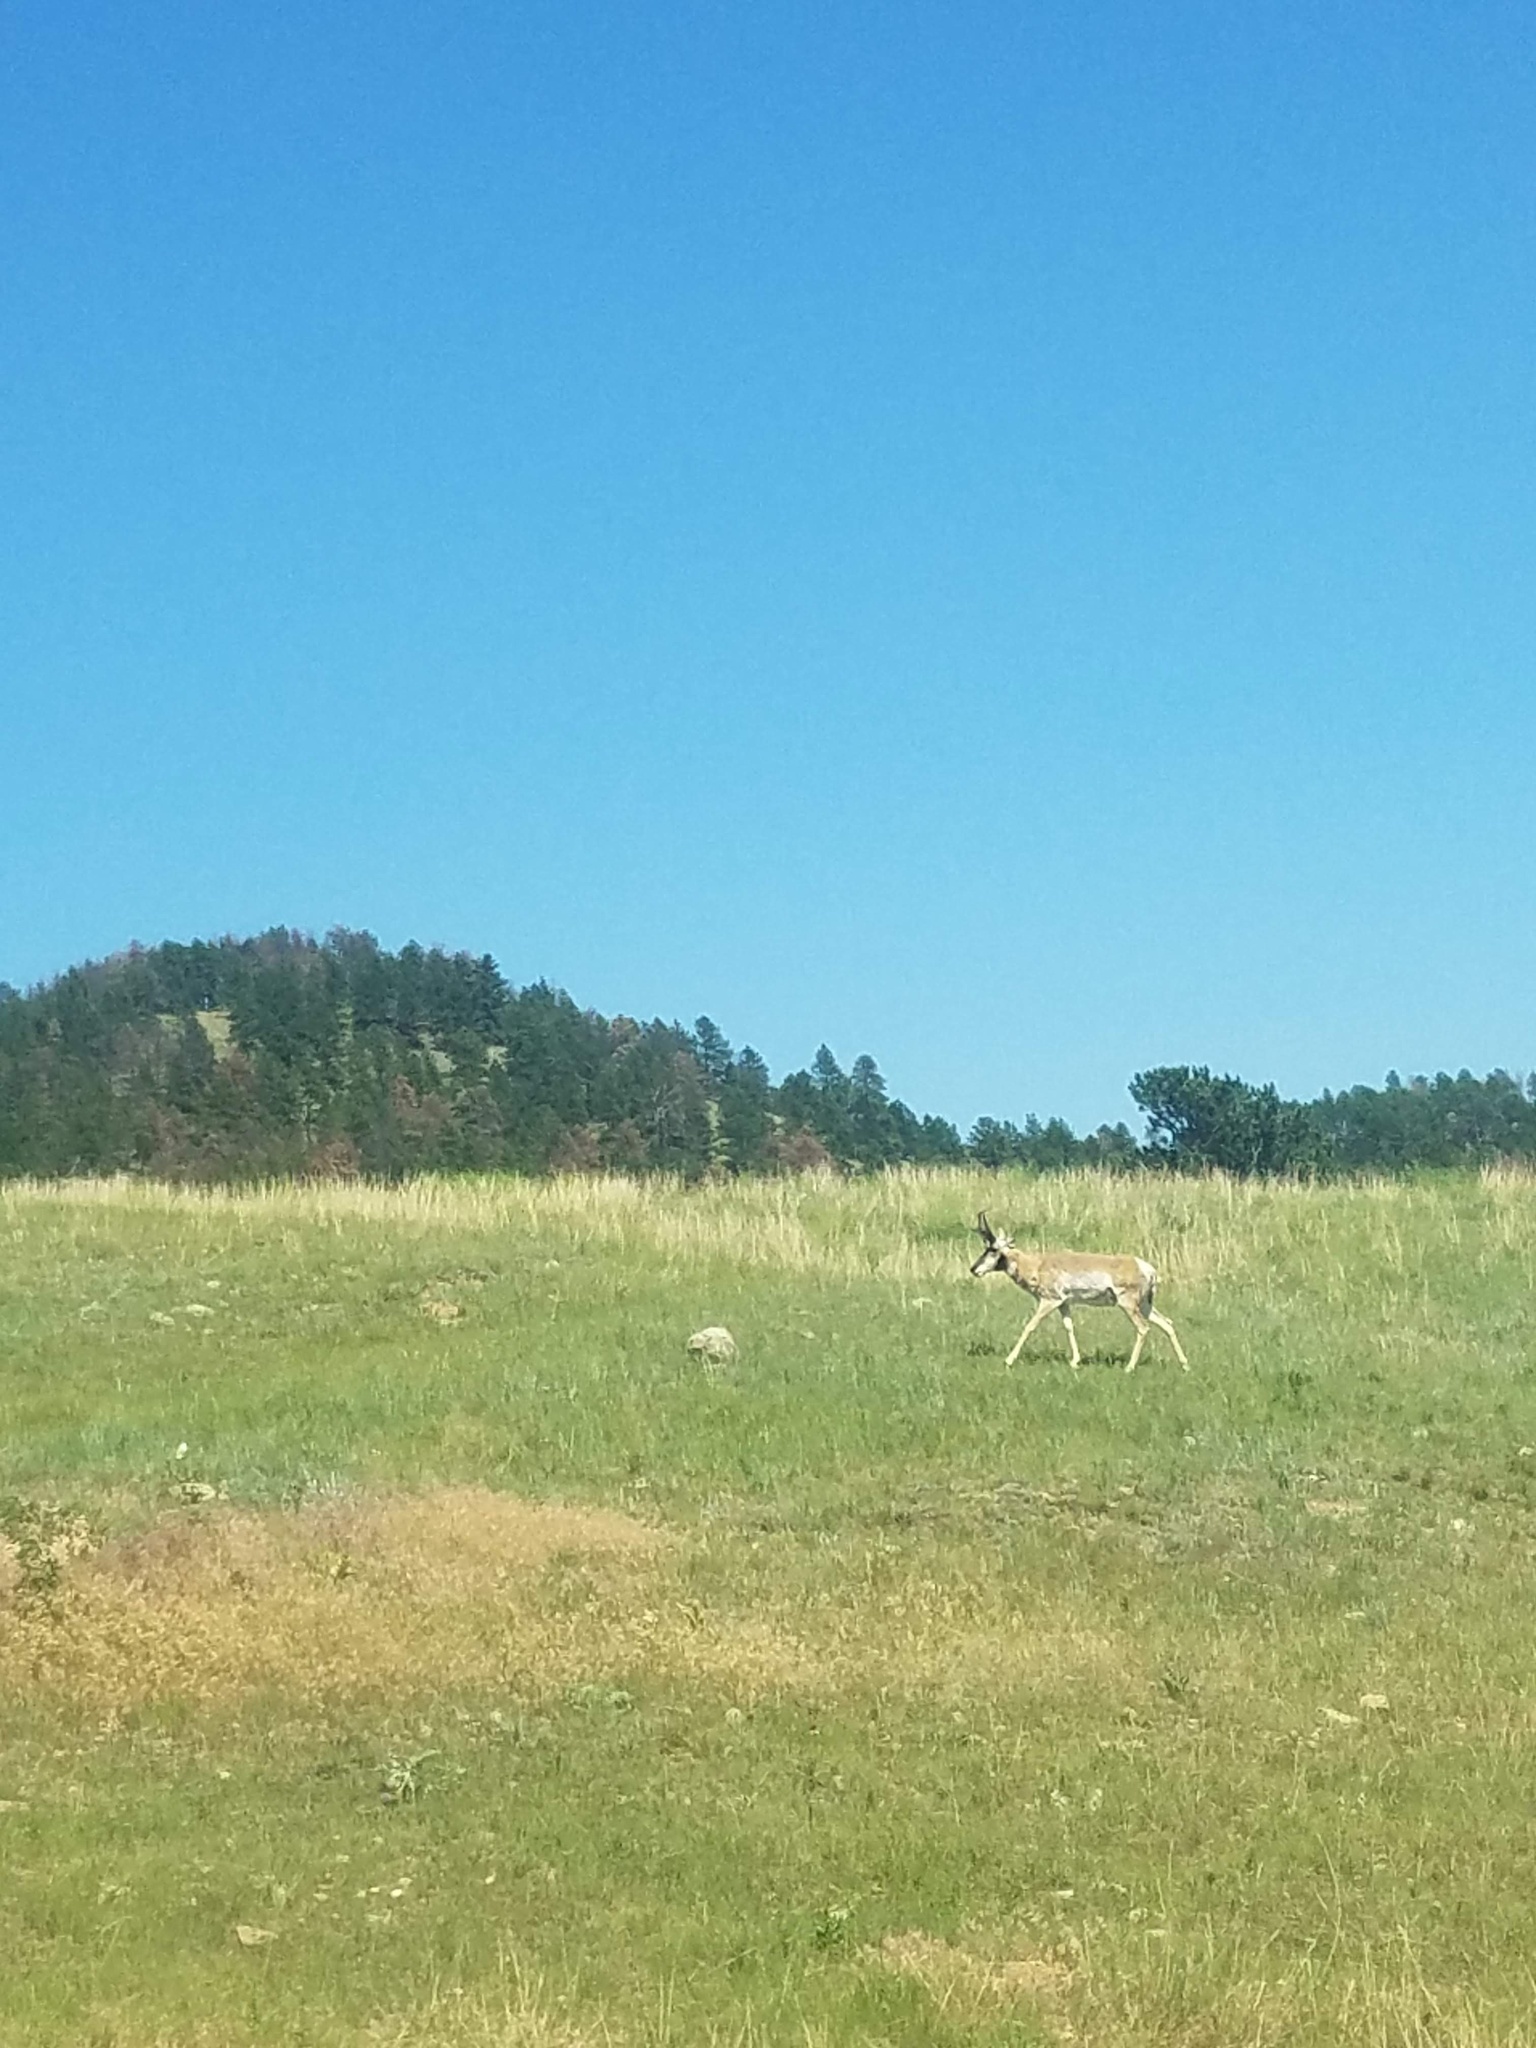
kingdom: Animalia
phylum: Chordata
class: Mammalia
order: Artiodactyla
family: Antilocapridae
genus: Antilocapra
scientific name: Antilocapra americana
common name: Pronghorn
